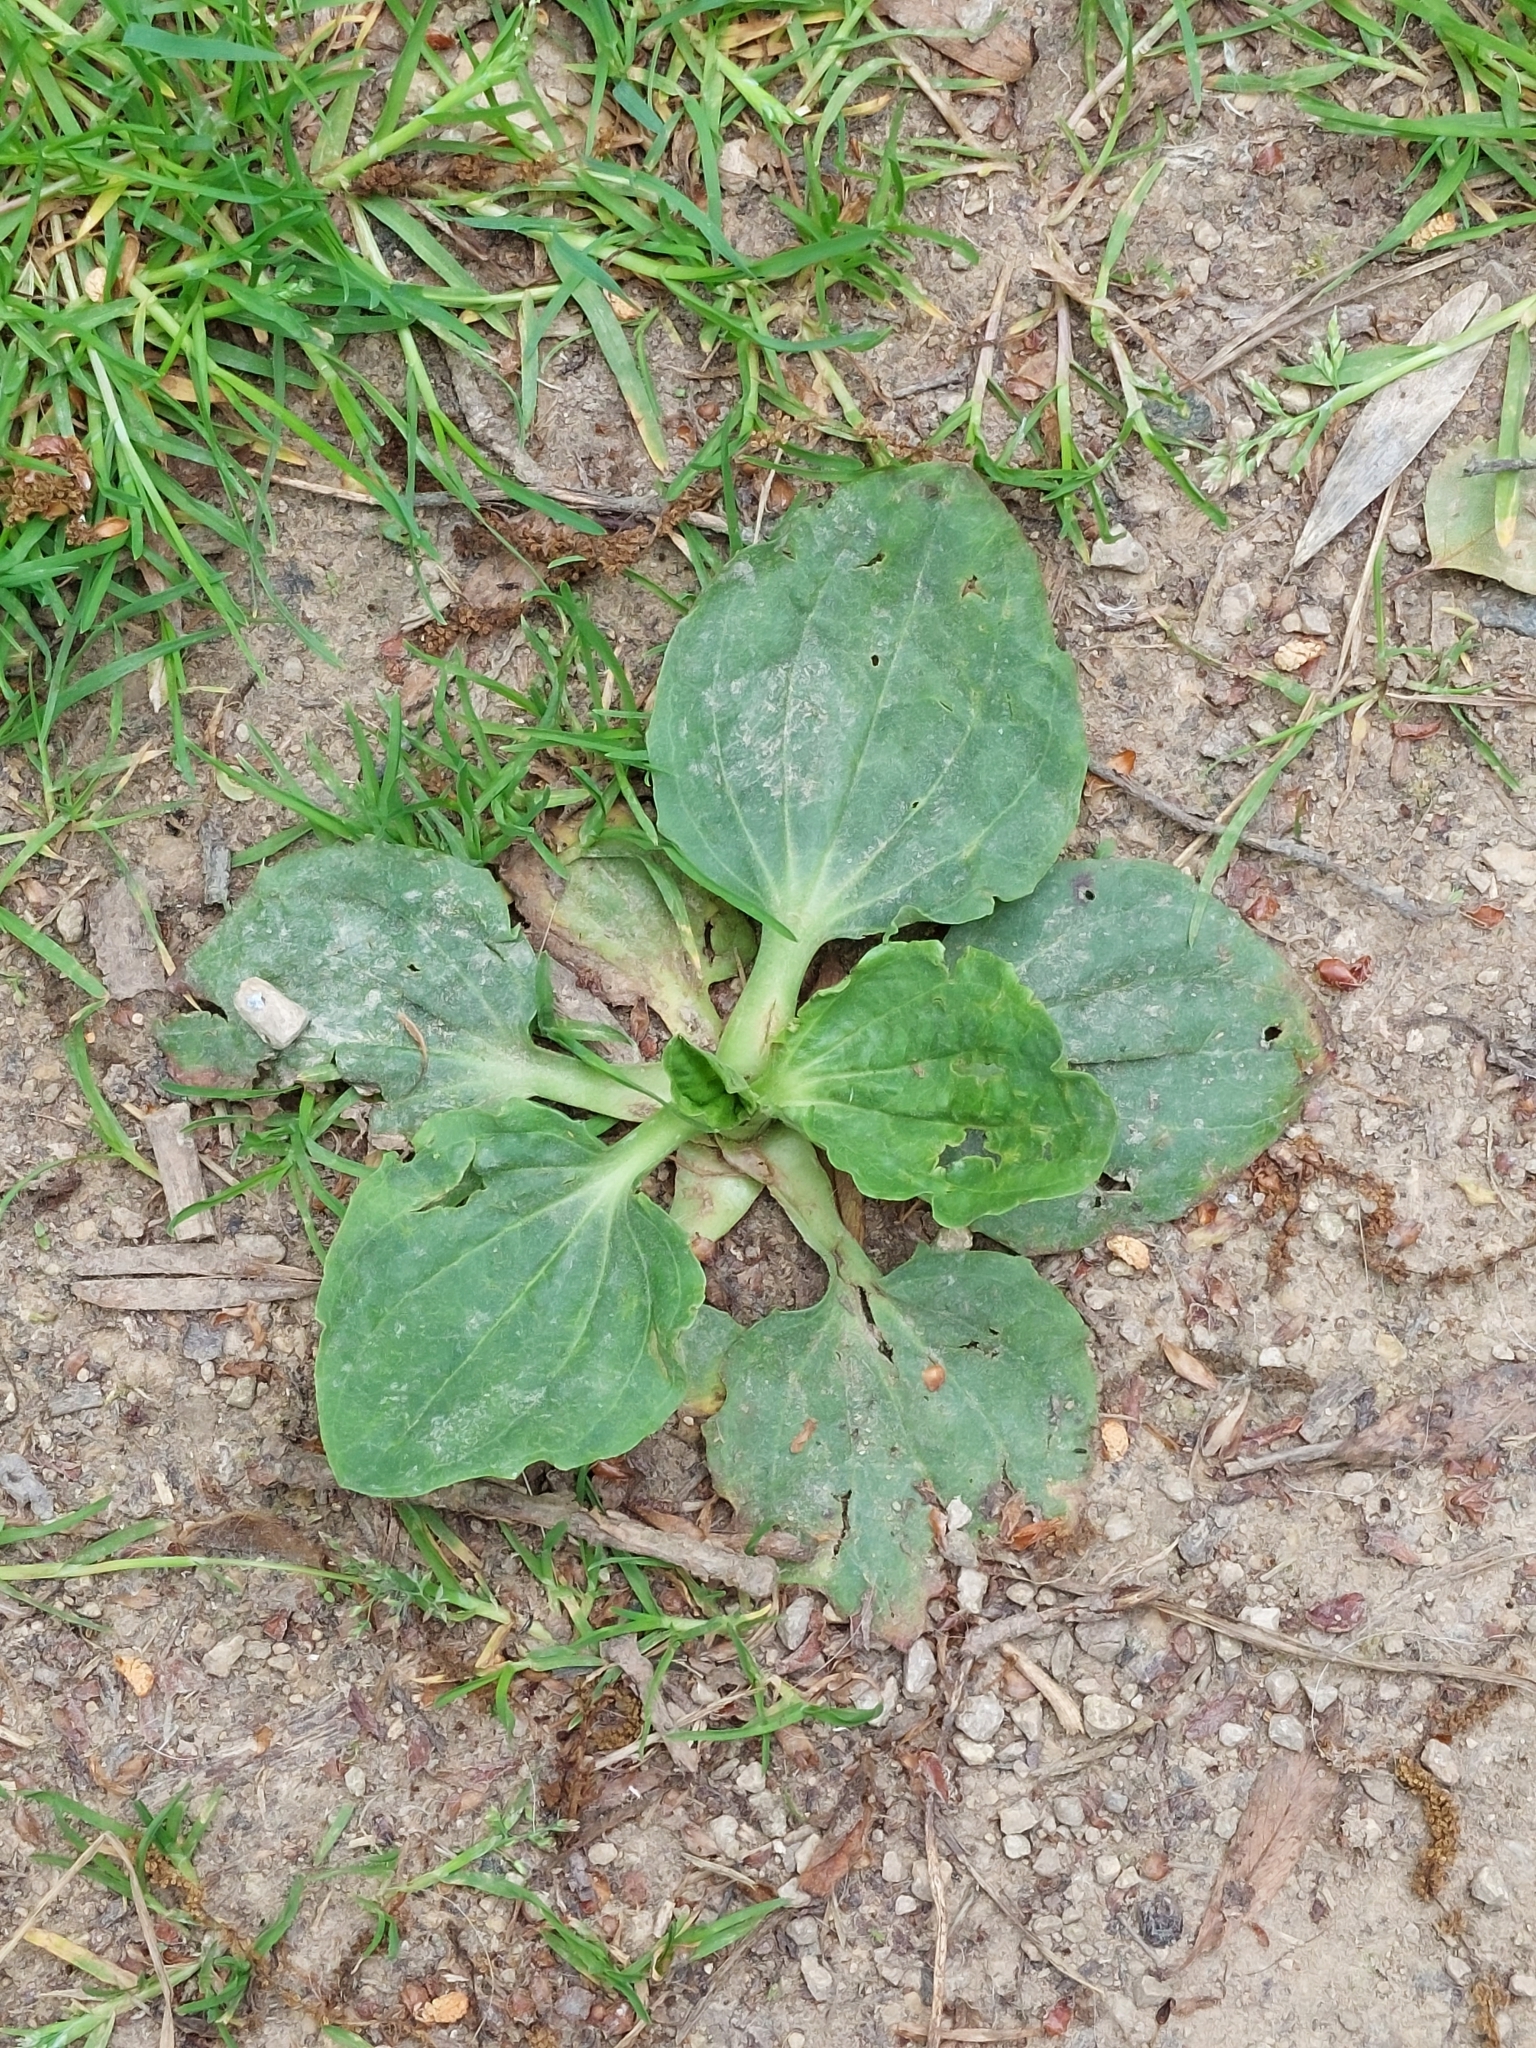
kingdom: Plantae
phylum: Tracheophyta
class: Magnoliopsida
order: Lamiales
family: Plantaginaceae
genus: Plantago
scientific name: Plantago major
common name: Common plantain
